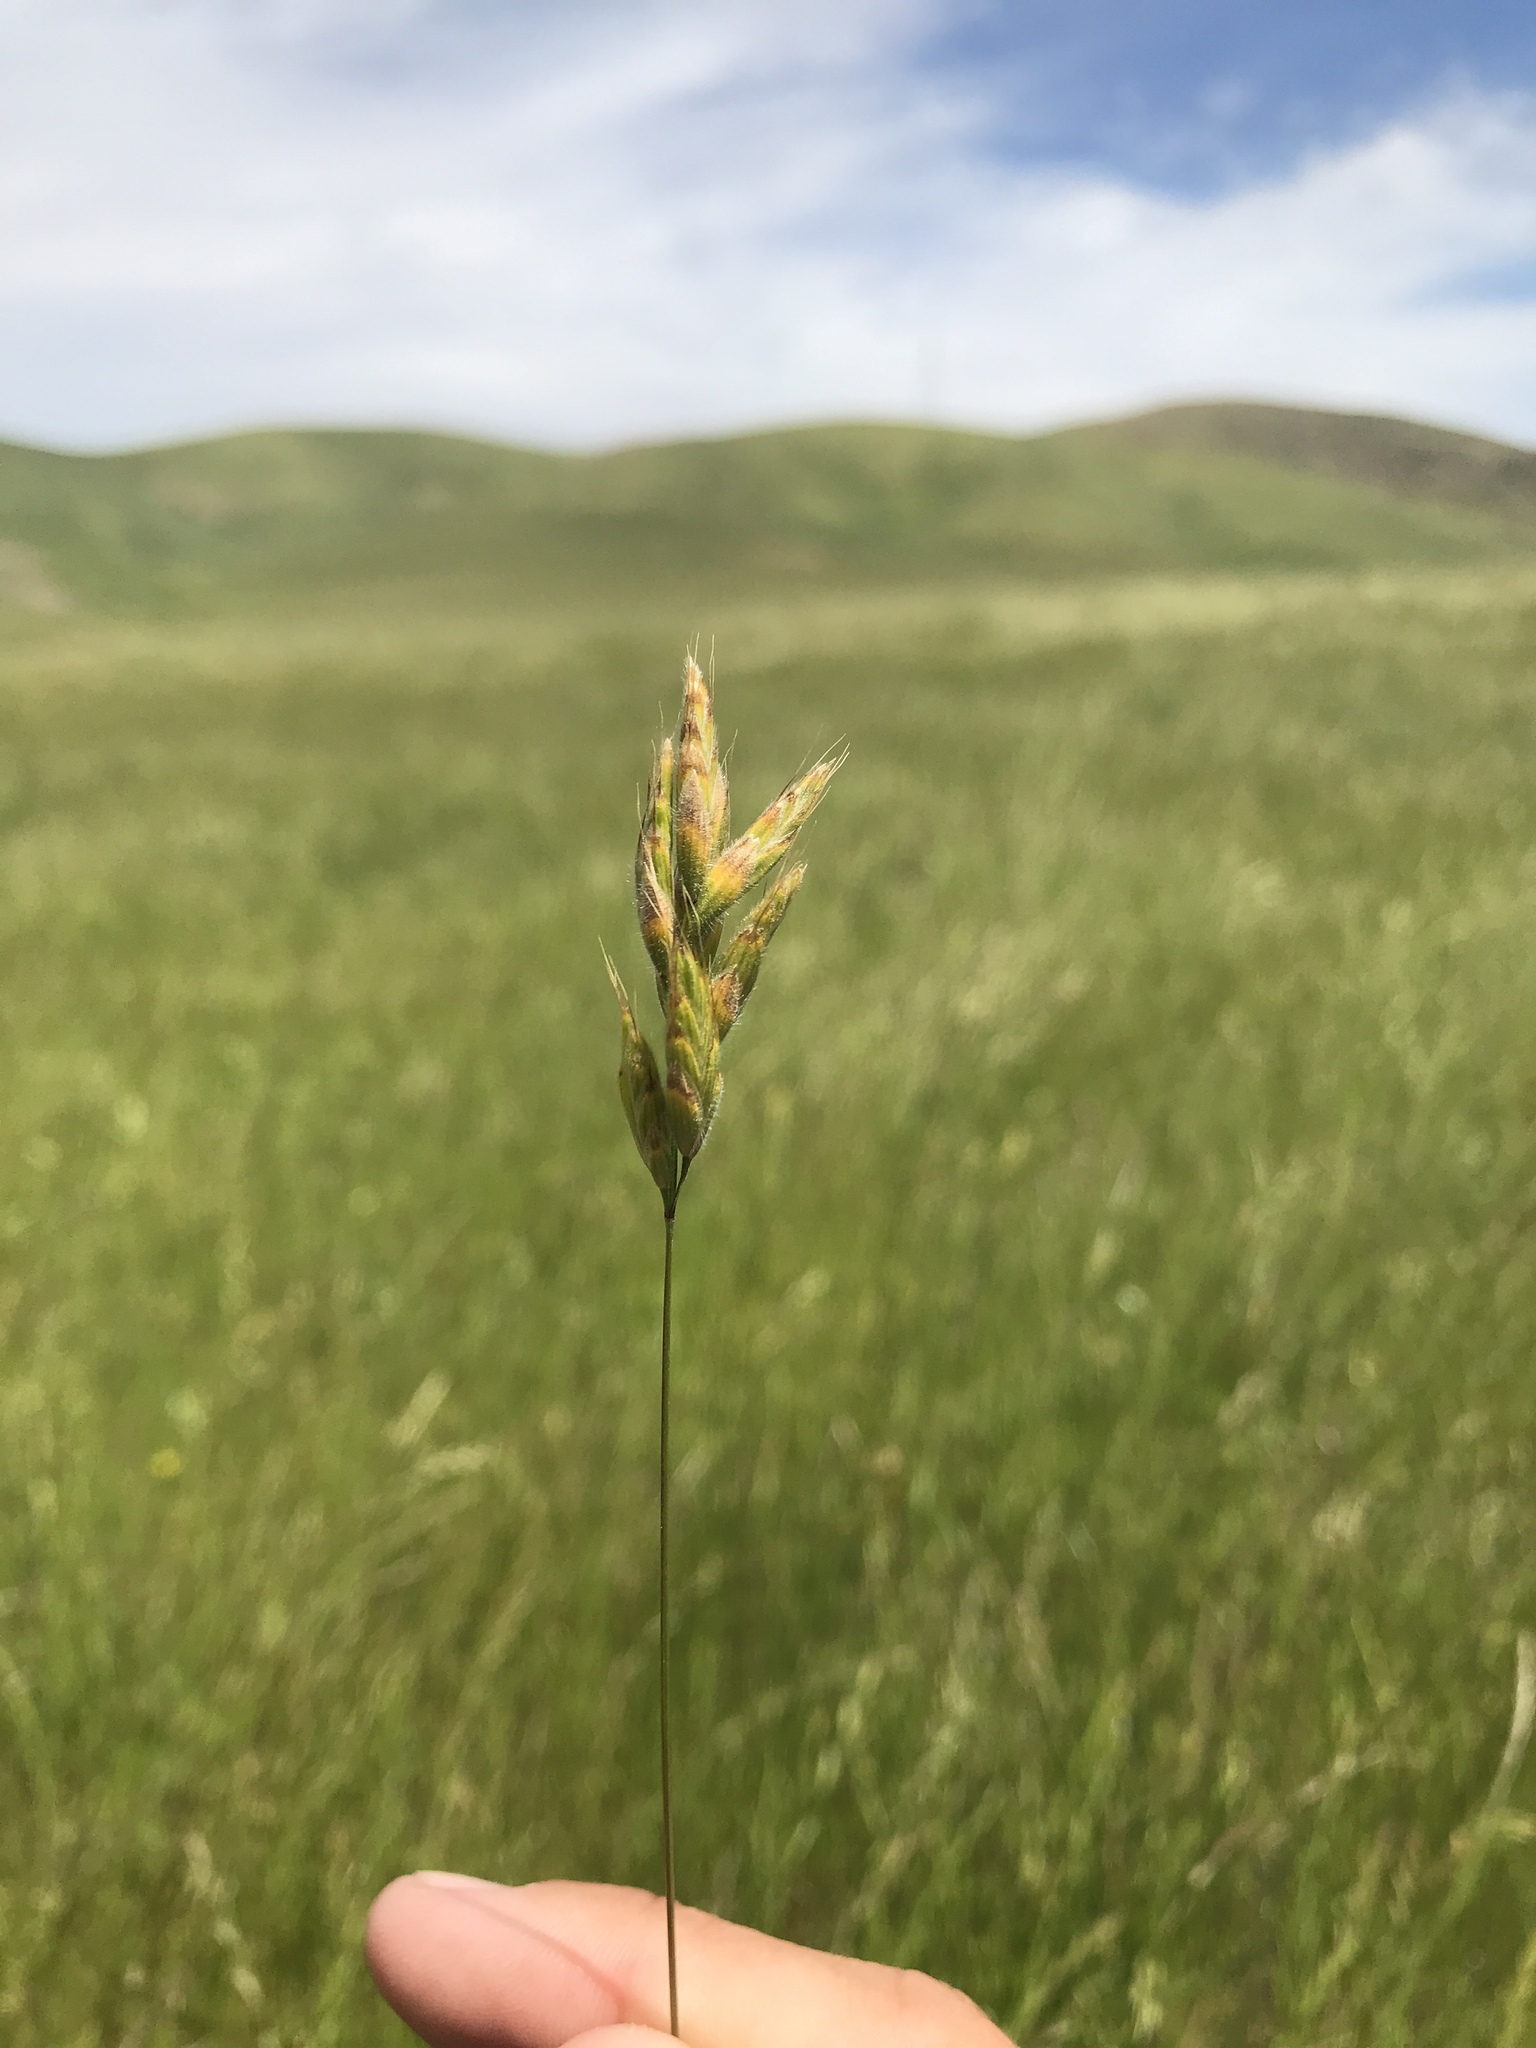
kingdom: Plantae
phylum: Tracheophyta
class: Liliopsida
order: Poales
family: Poaceae
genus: Bromus
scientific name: Bromus hordeaceus
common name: Soft brome
